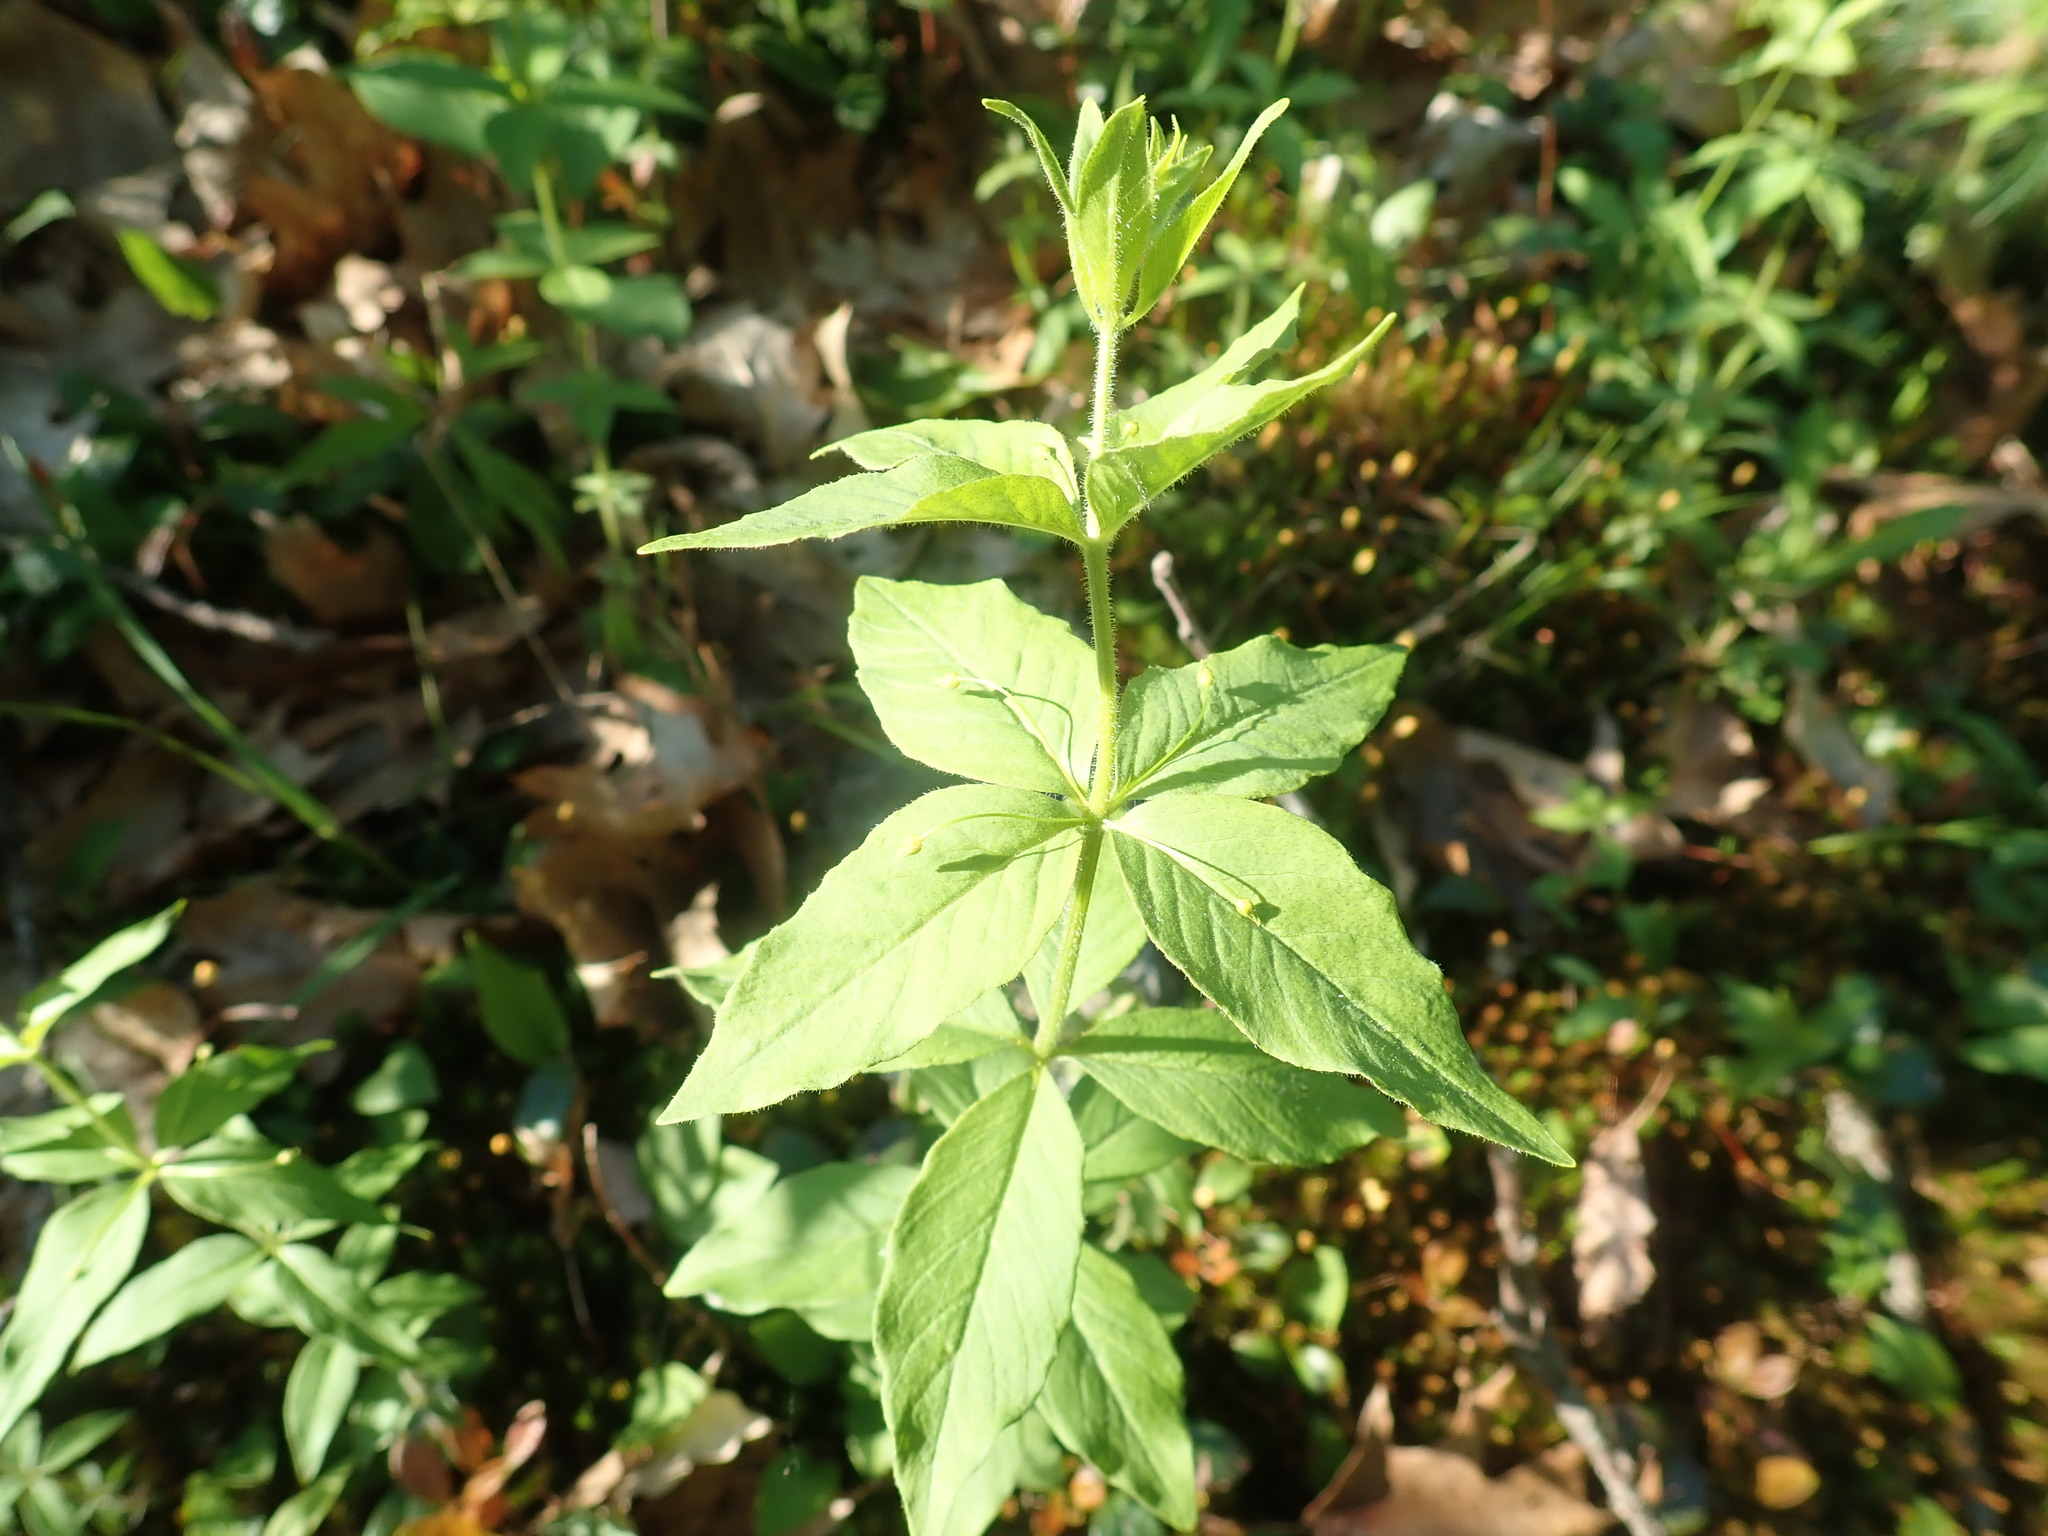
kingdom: Plantae
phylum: Tracheophyta
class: Magnoliopsida
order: Ericales
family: Primulaceae
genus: Lysimachia
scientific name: Lysimachia quadrifolia
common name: Whorled loosestrife
